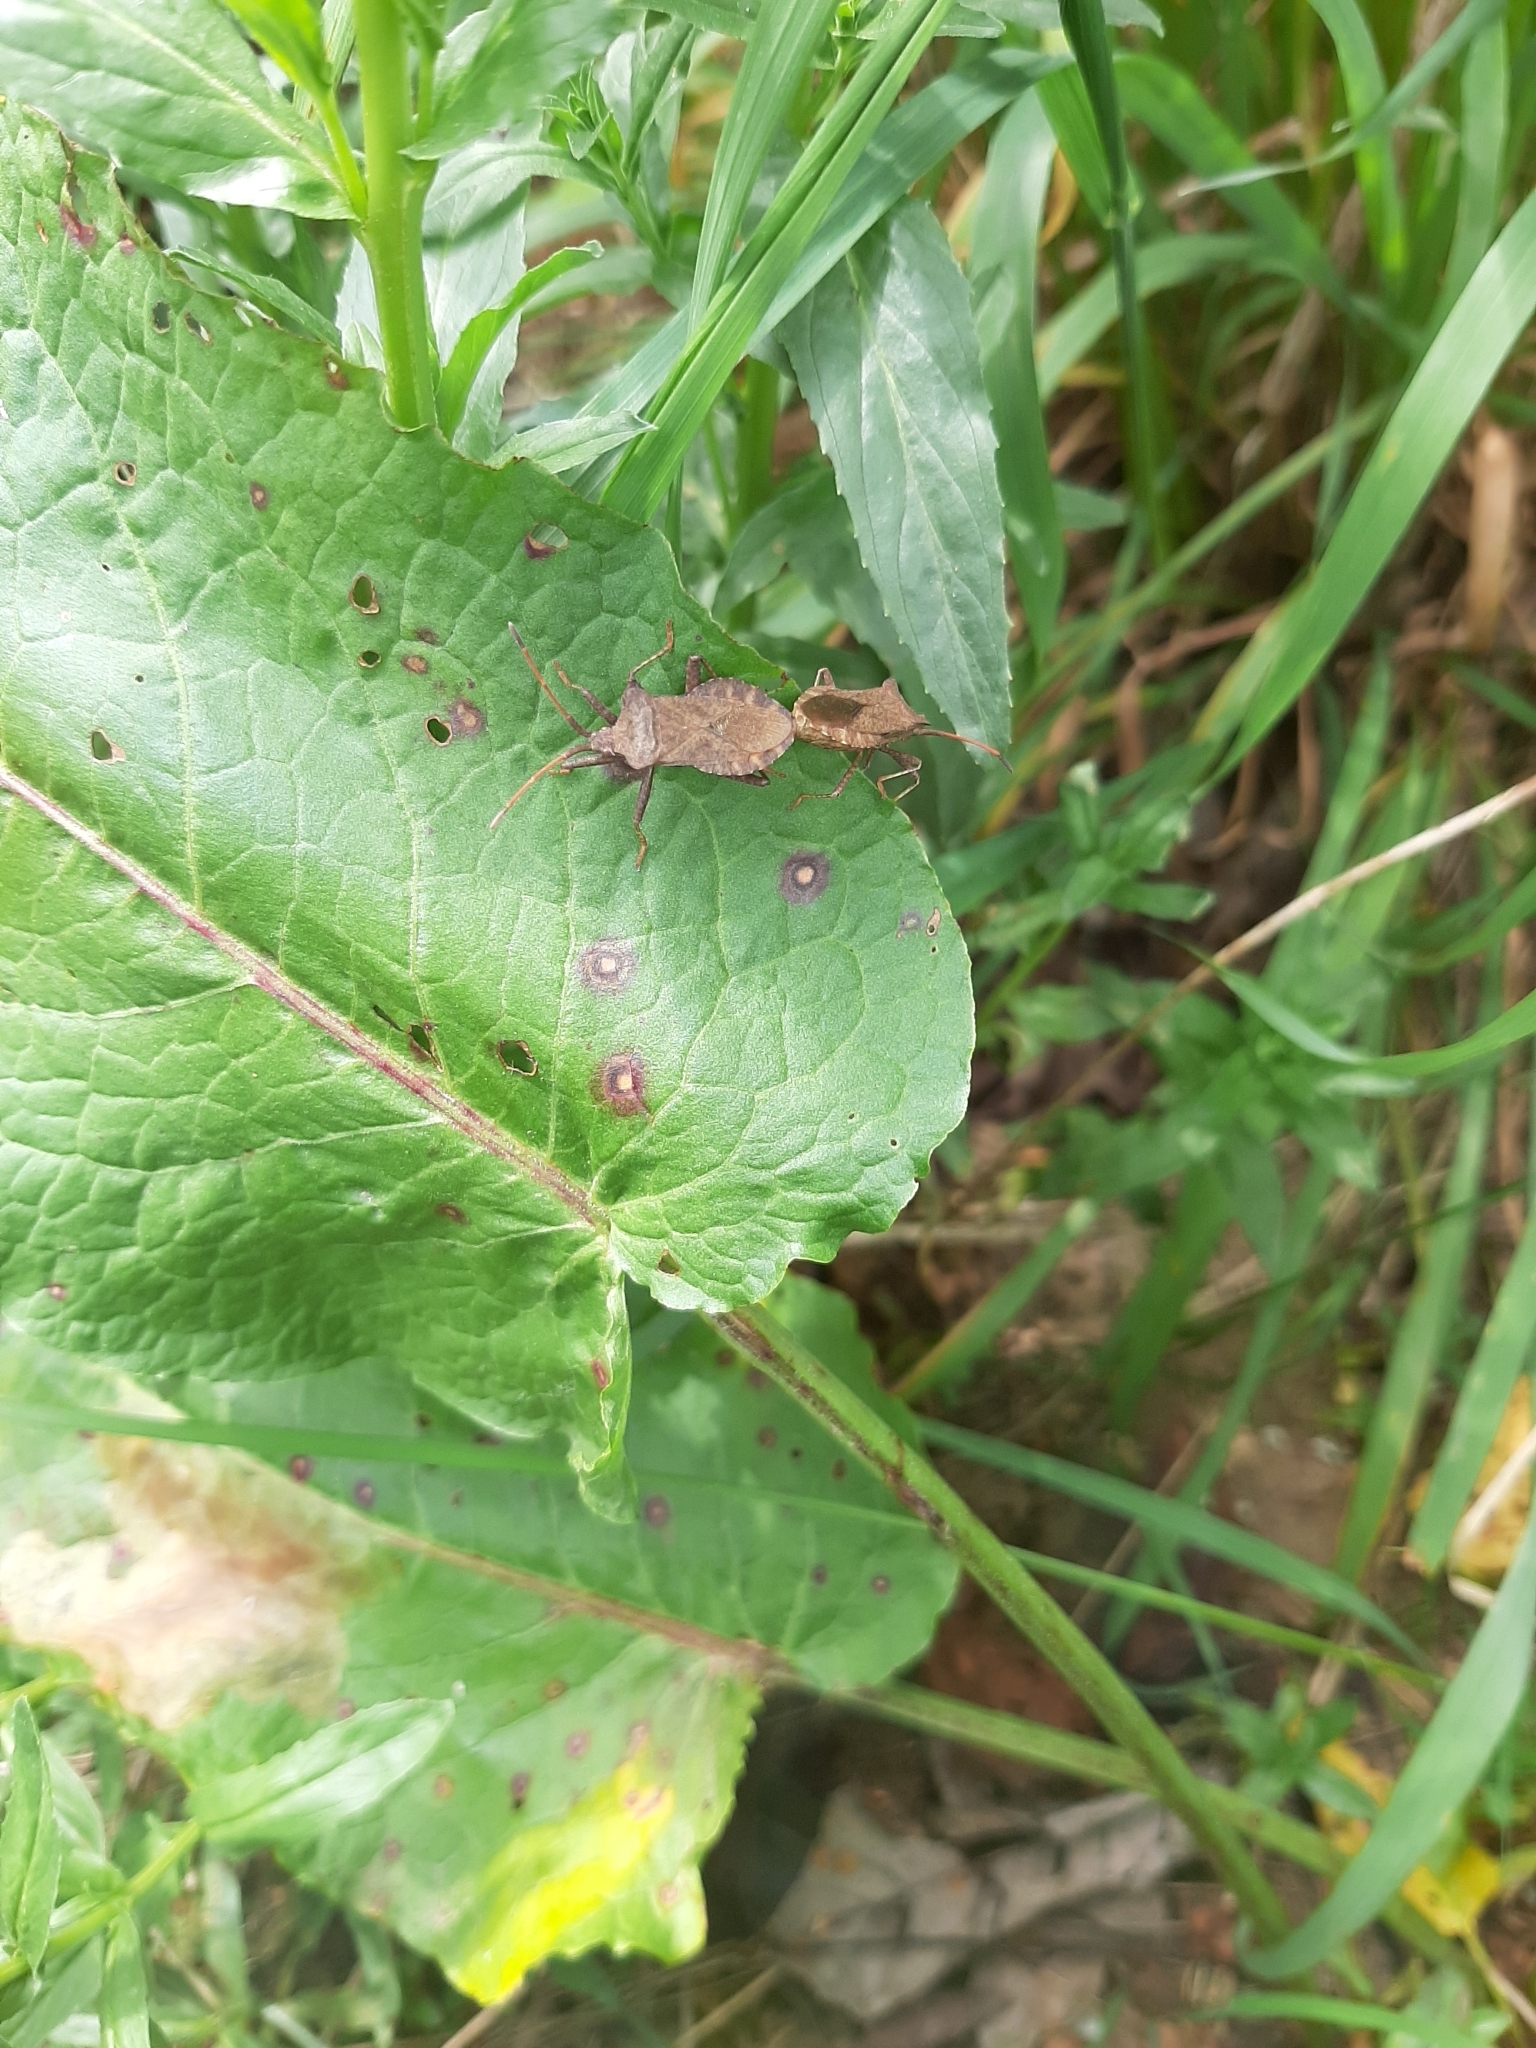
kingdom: Animalia
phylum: Arthropoda
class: Insecta
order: Hemiptera
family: Coreidae
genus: Coreus
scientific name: Coreus marginatus
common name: Dock bug
